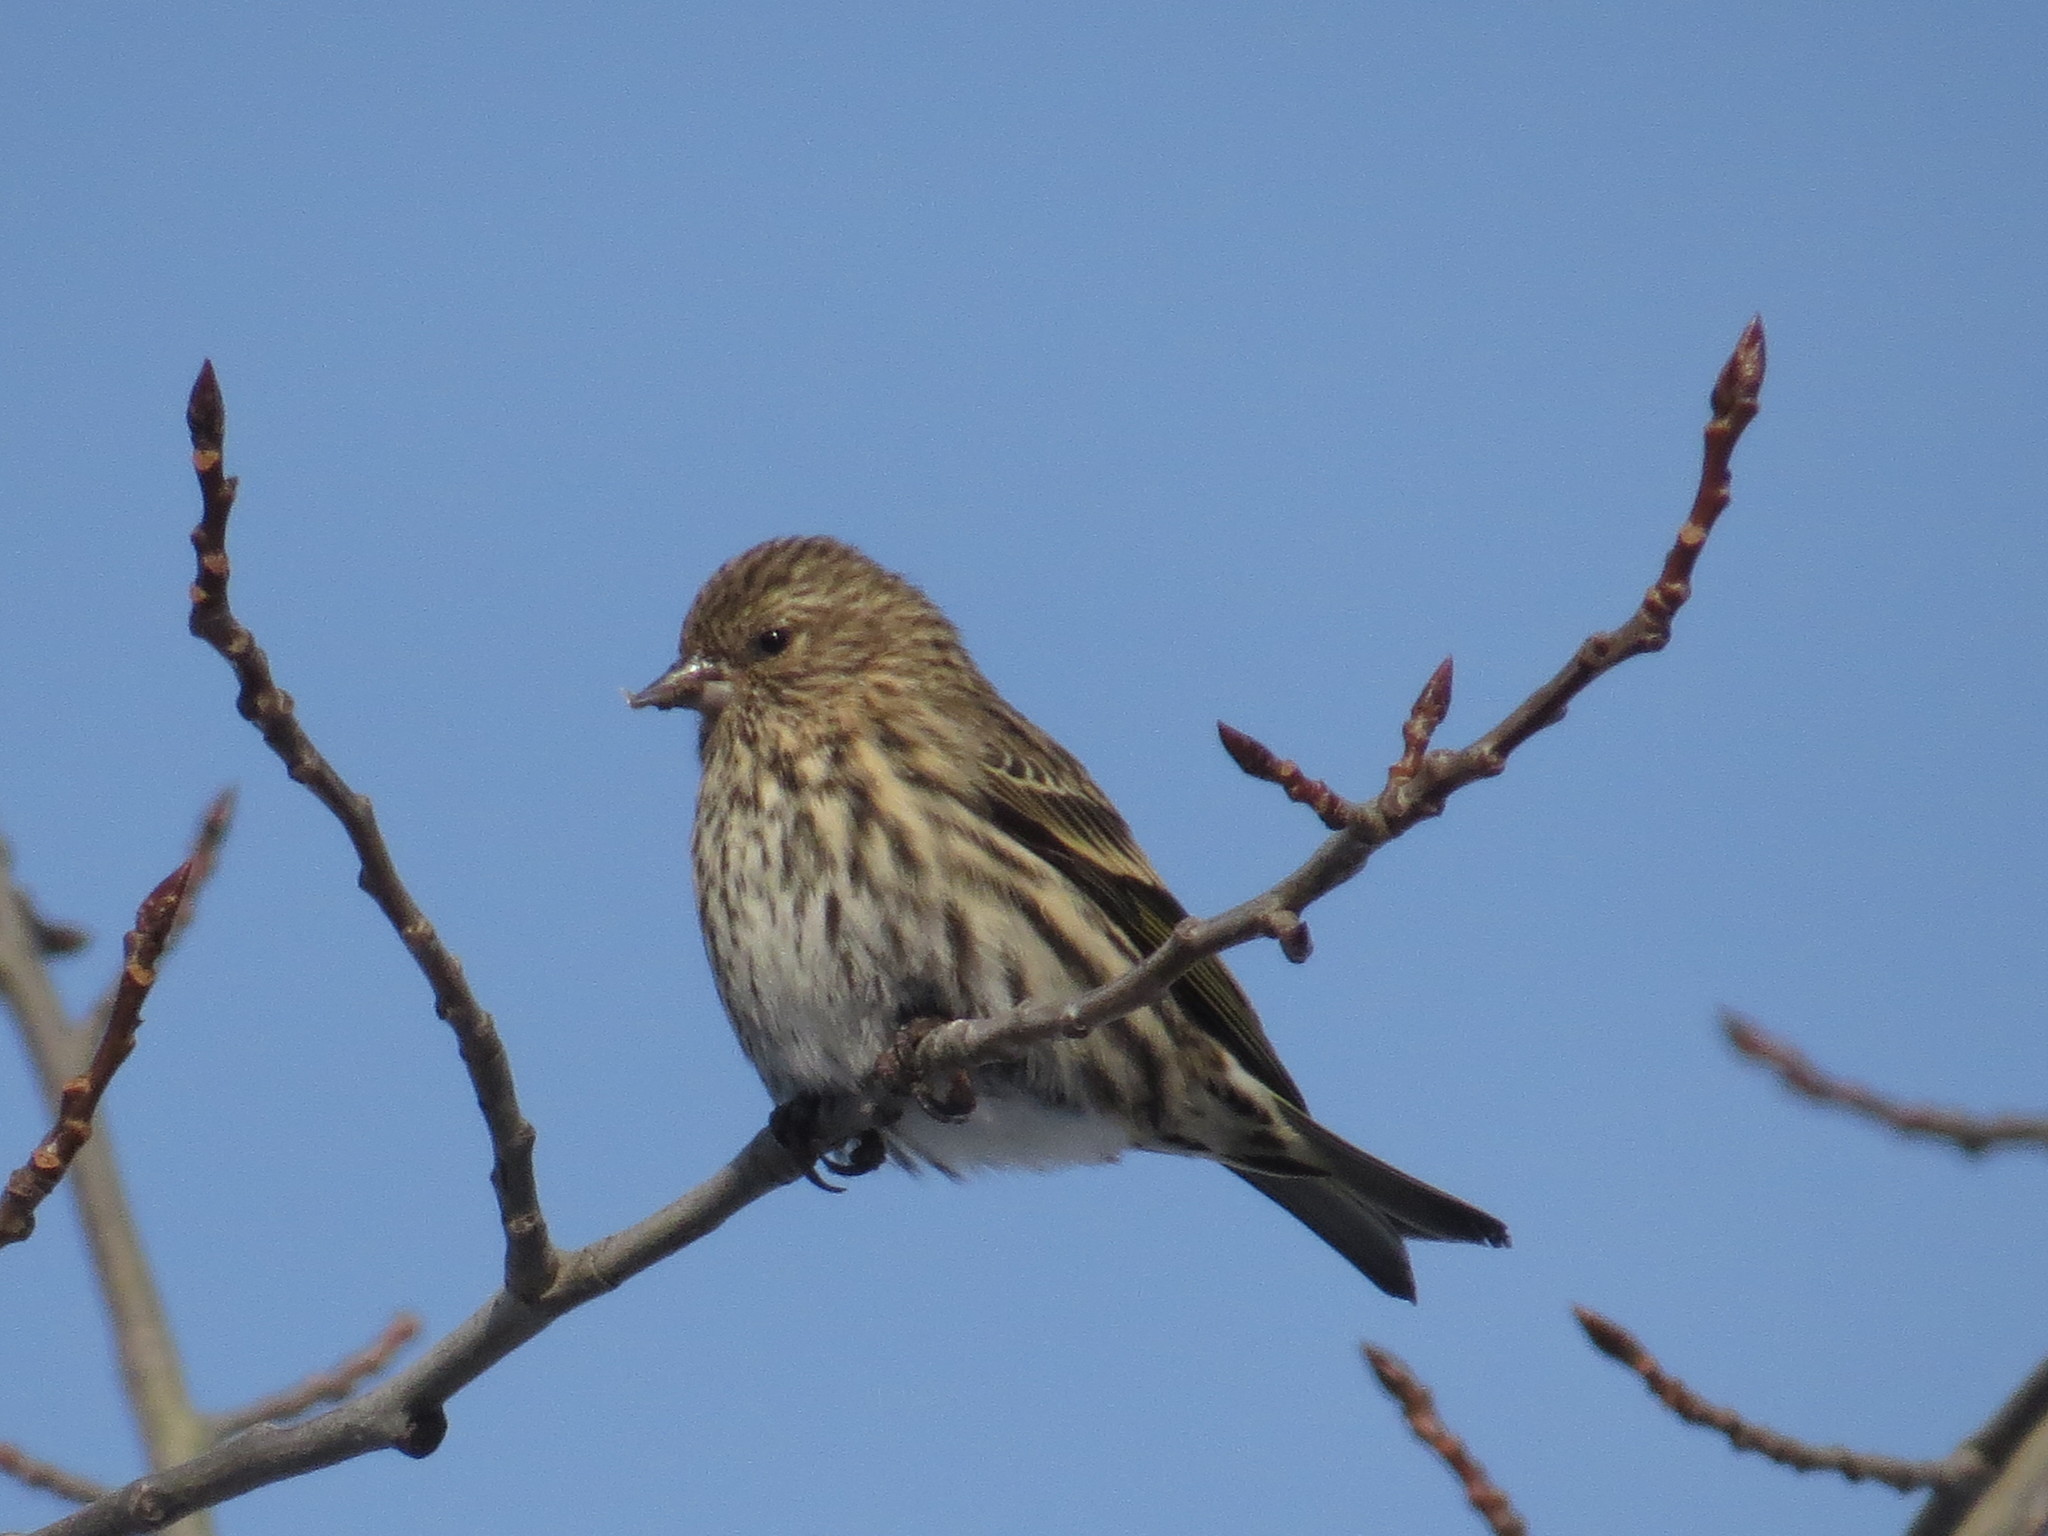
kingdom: Animalia
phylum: Chordata
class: Aves
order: Passeriformes
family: Fringillidae
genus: Spinus
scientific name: Spinus pinus
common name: Pine siskin
